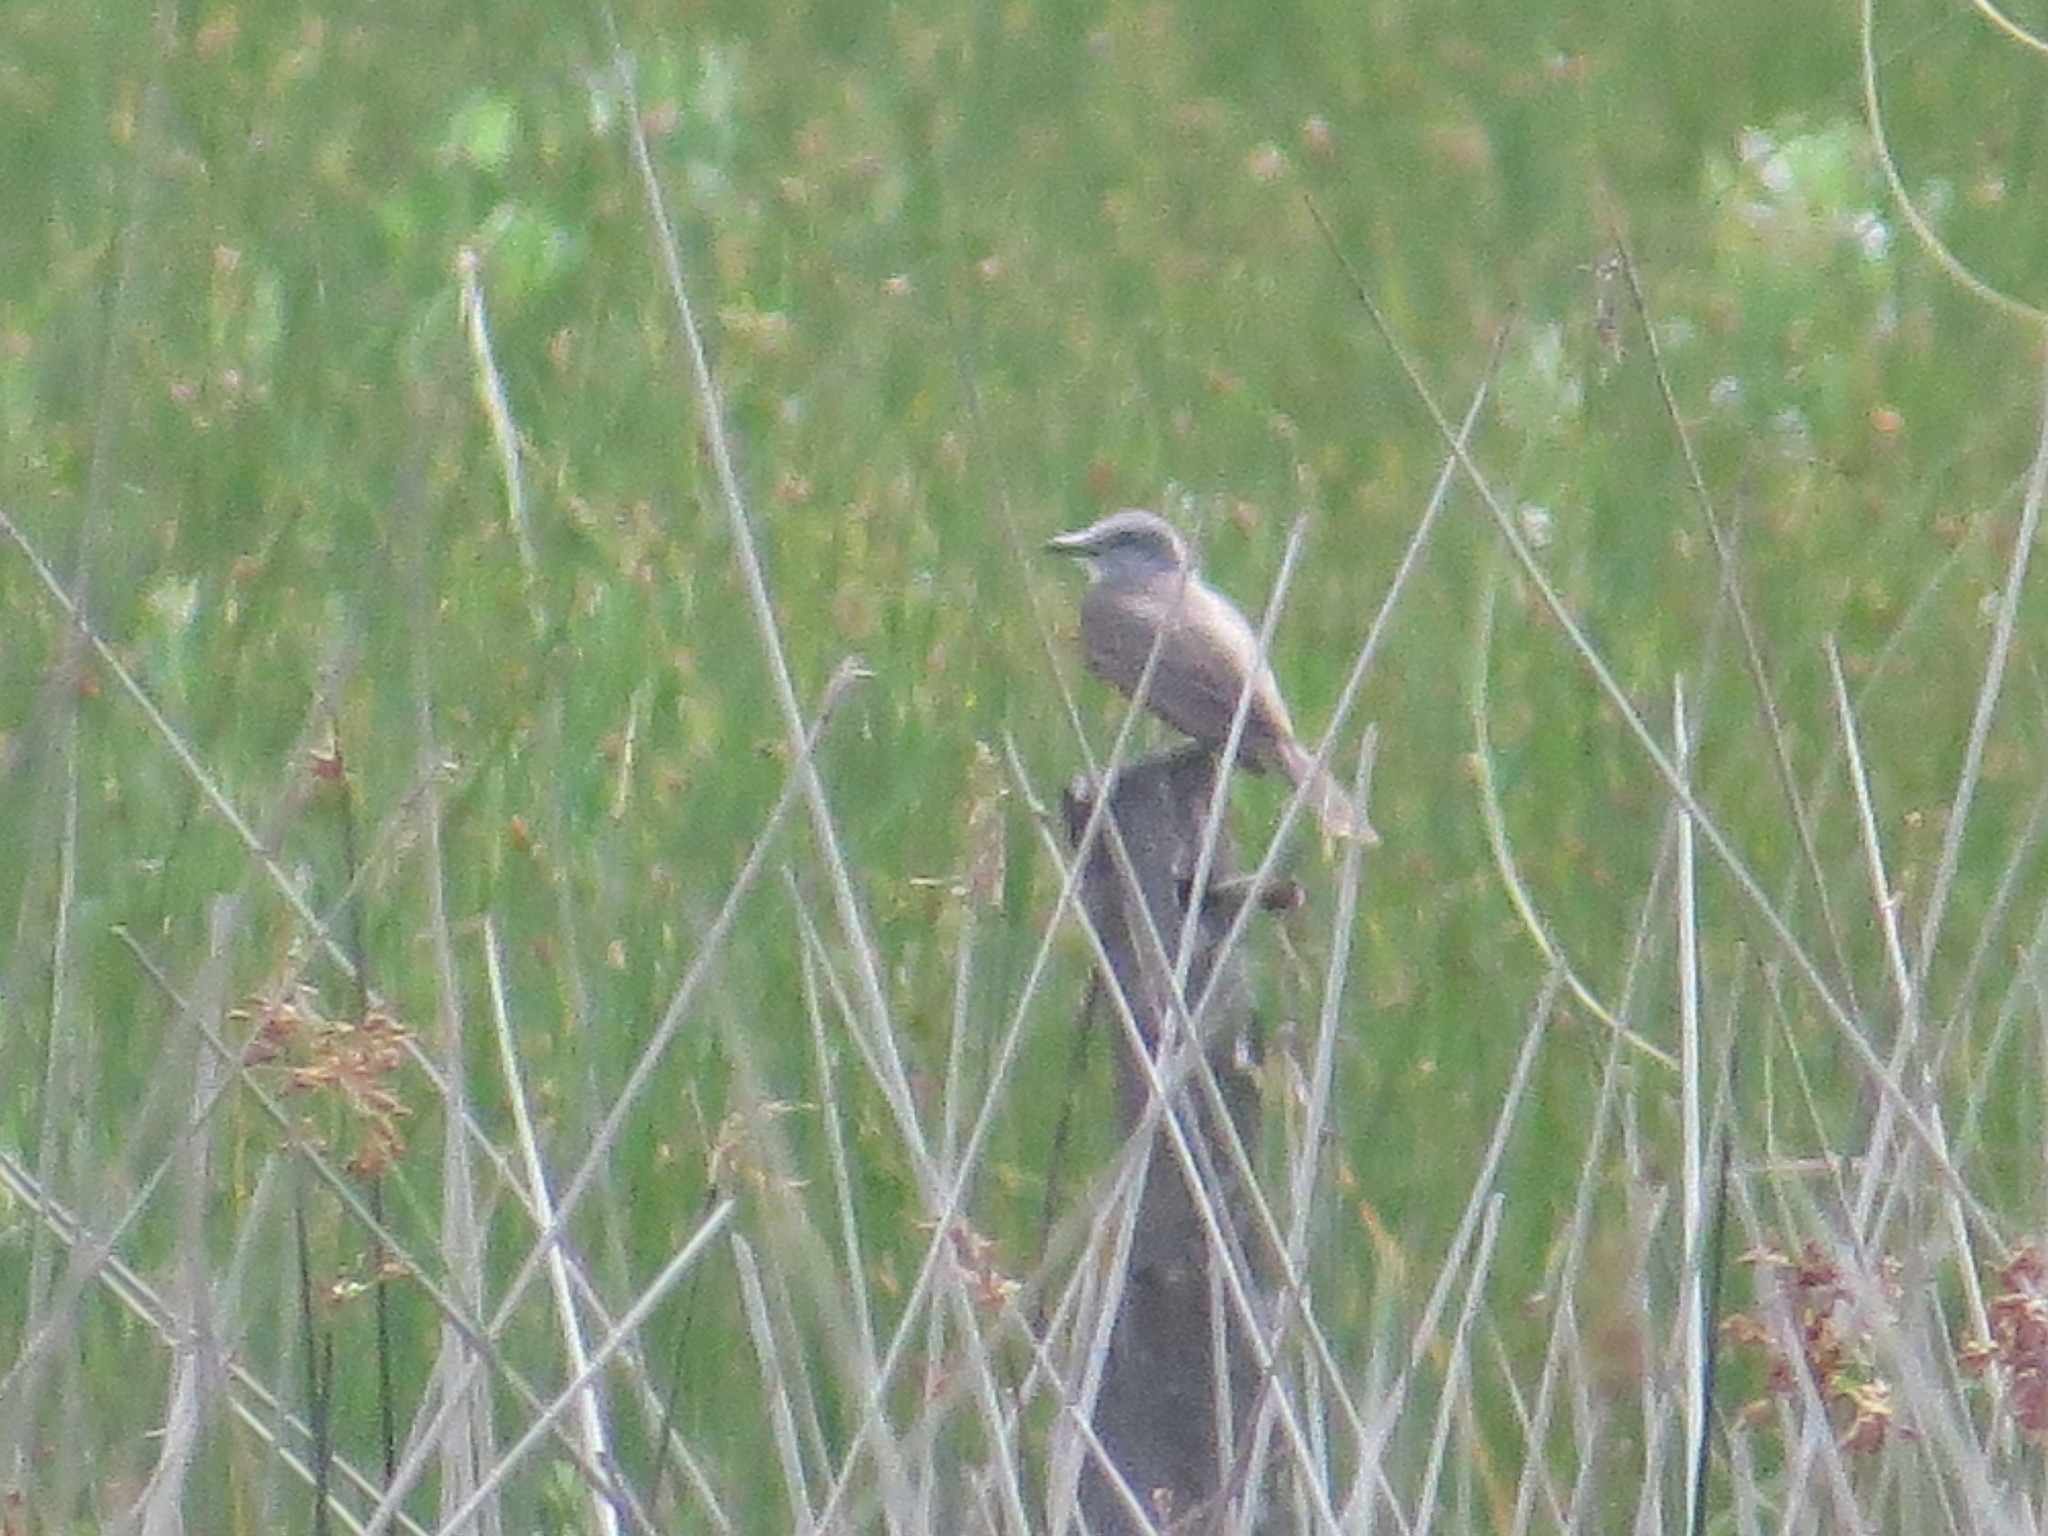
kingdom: Animalia
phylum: Chordata
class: Aves
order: Passeriformes
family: Tyrannidae
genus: Tyrannus
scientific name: Tyrannus melancholicus
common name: Tropical kingbird
